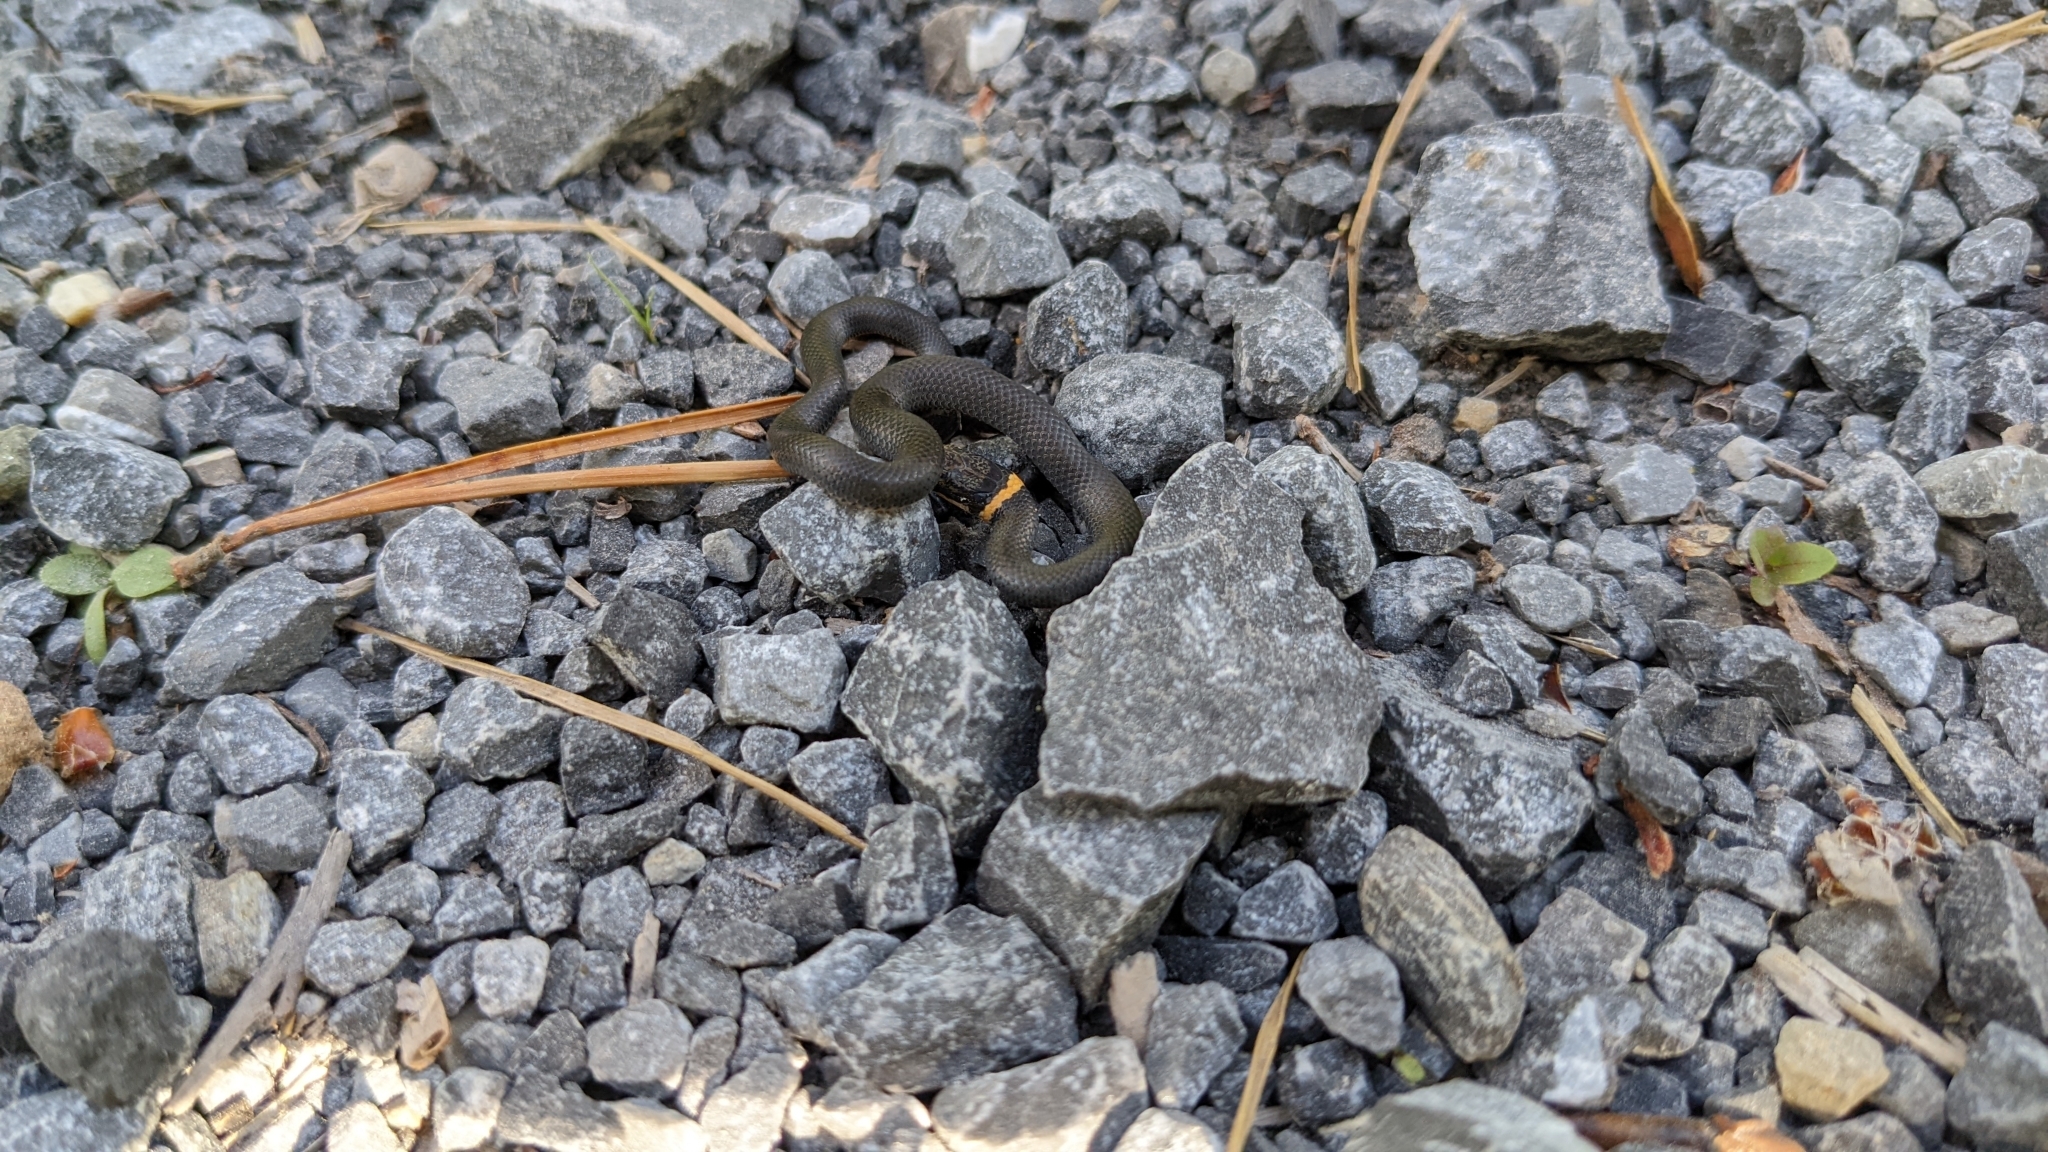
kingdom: Animalia
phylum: Chordata
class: Squamata
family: Colubridae
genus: Diadophis
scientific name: Diadophis punctatus
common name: Ringneck snake
